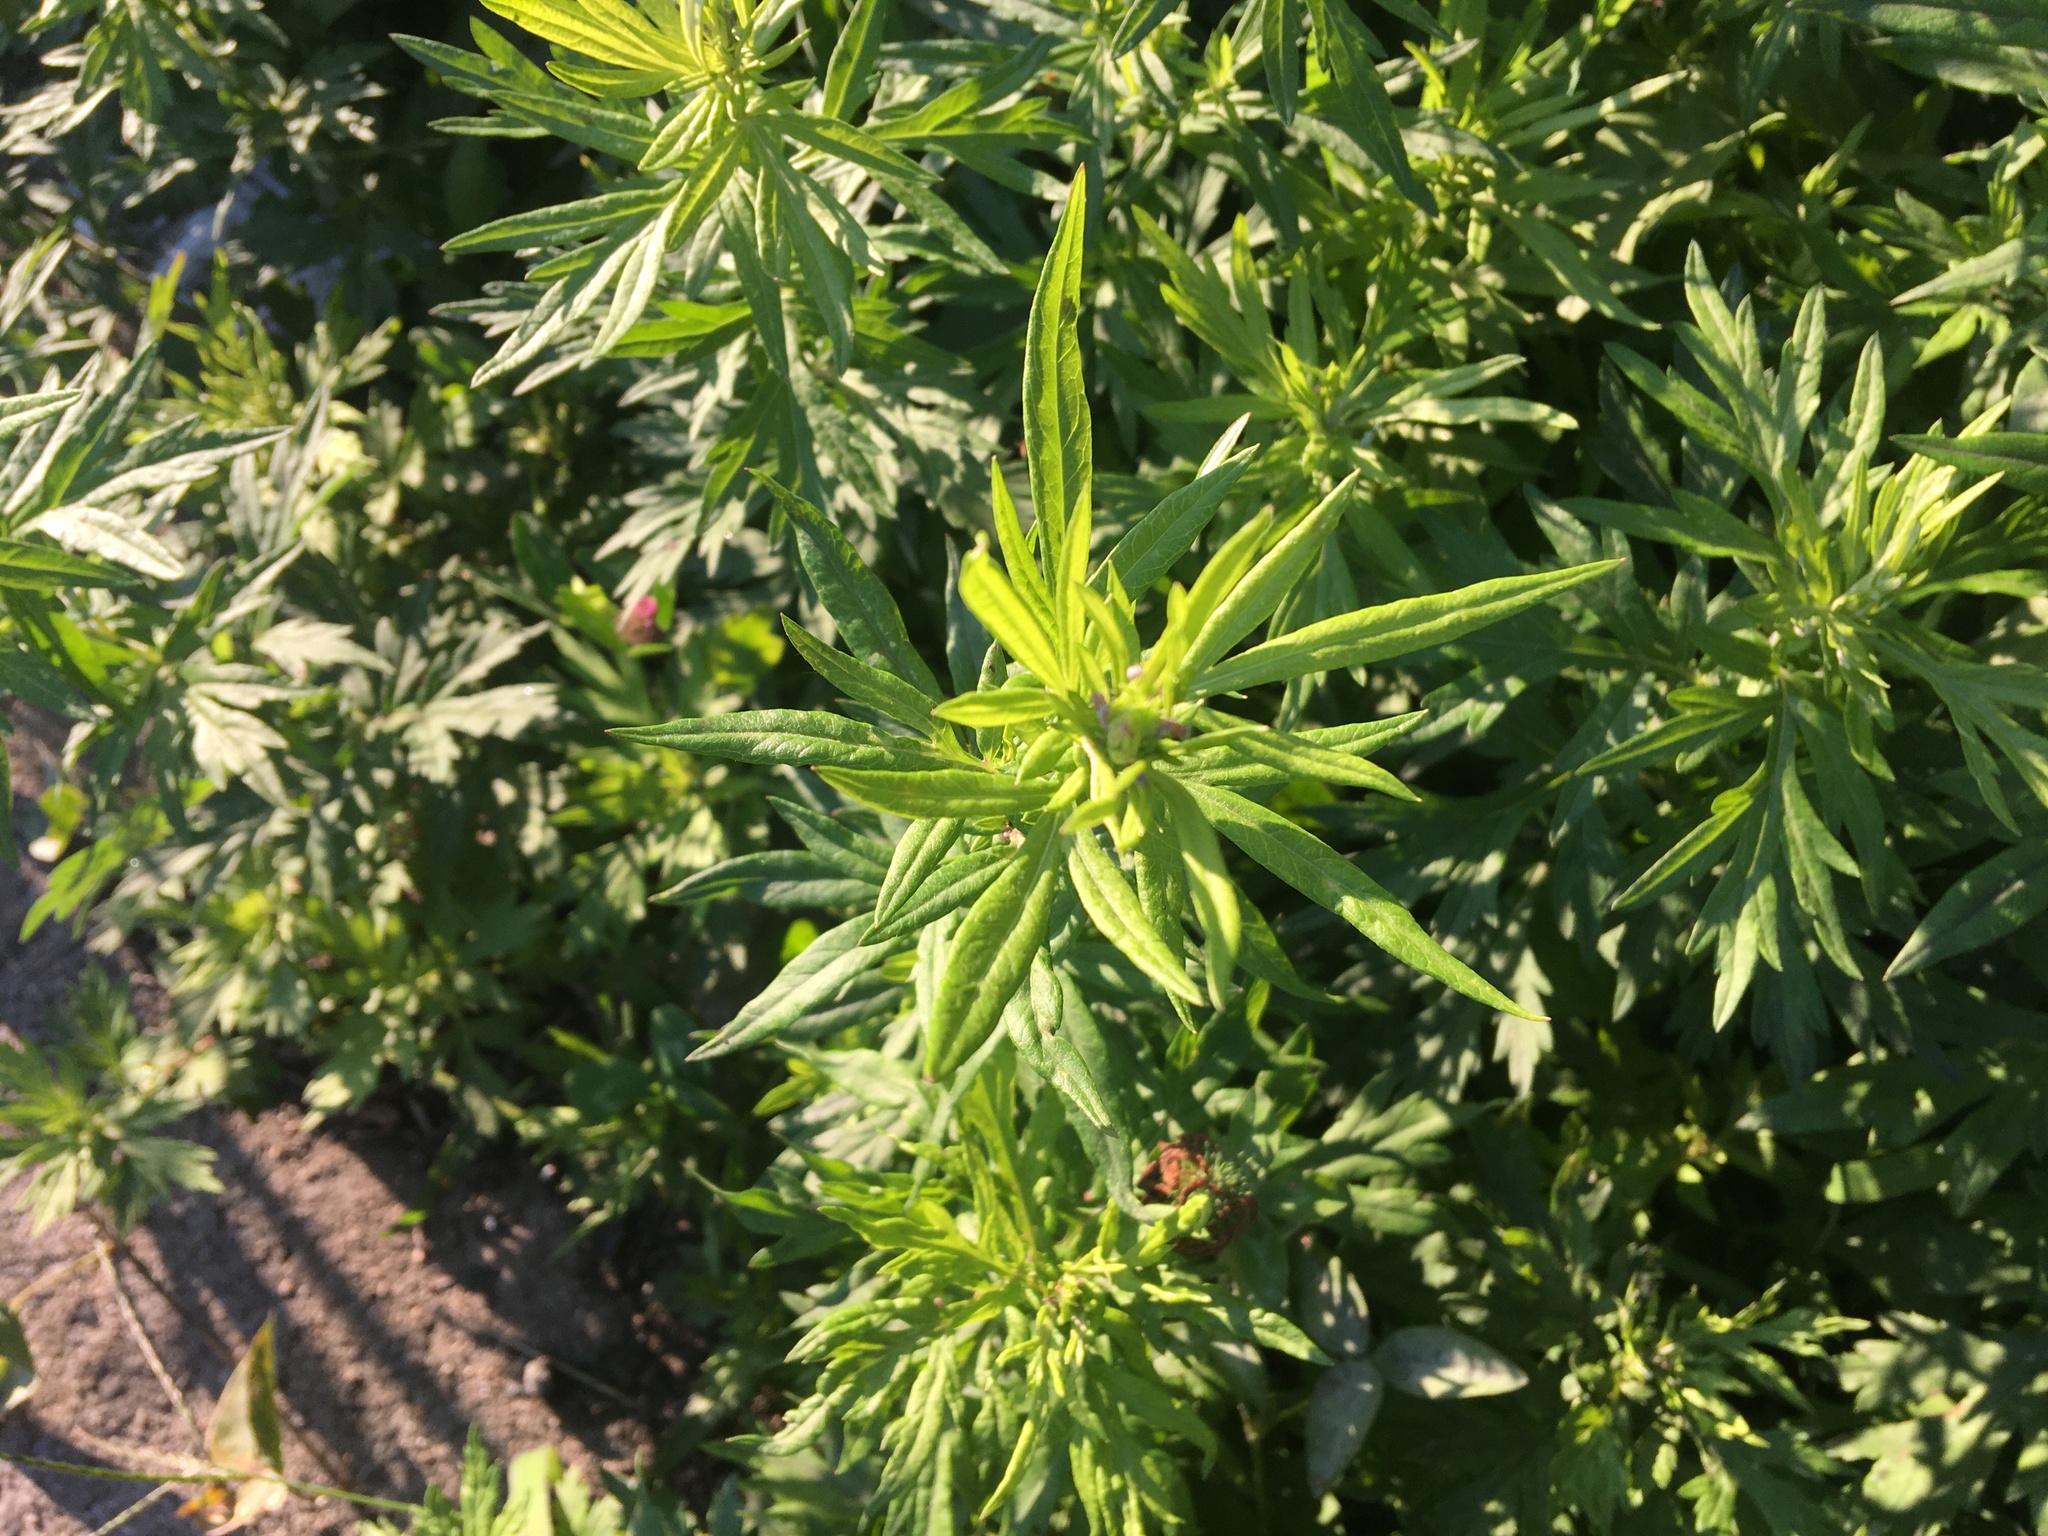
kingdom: Plantae
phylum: Tracheophyta
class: Magnoliopsida
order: Asterales
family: Asteraceae
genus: Artemisia
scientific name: Artemisia vulgaris
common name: Mugwort
